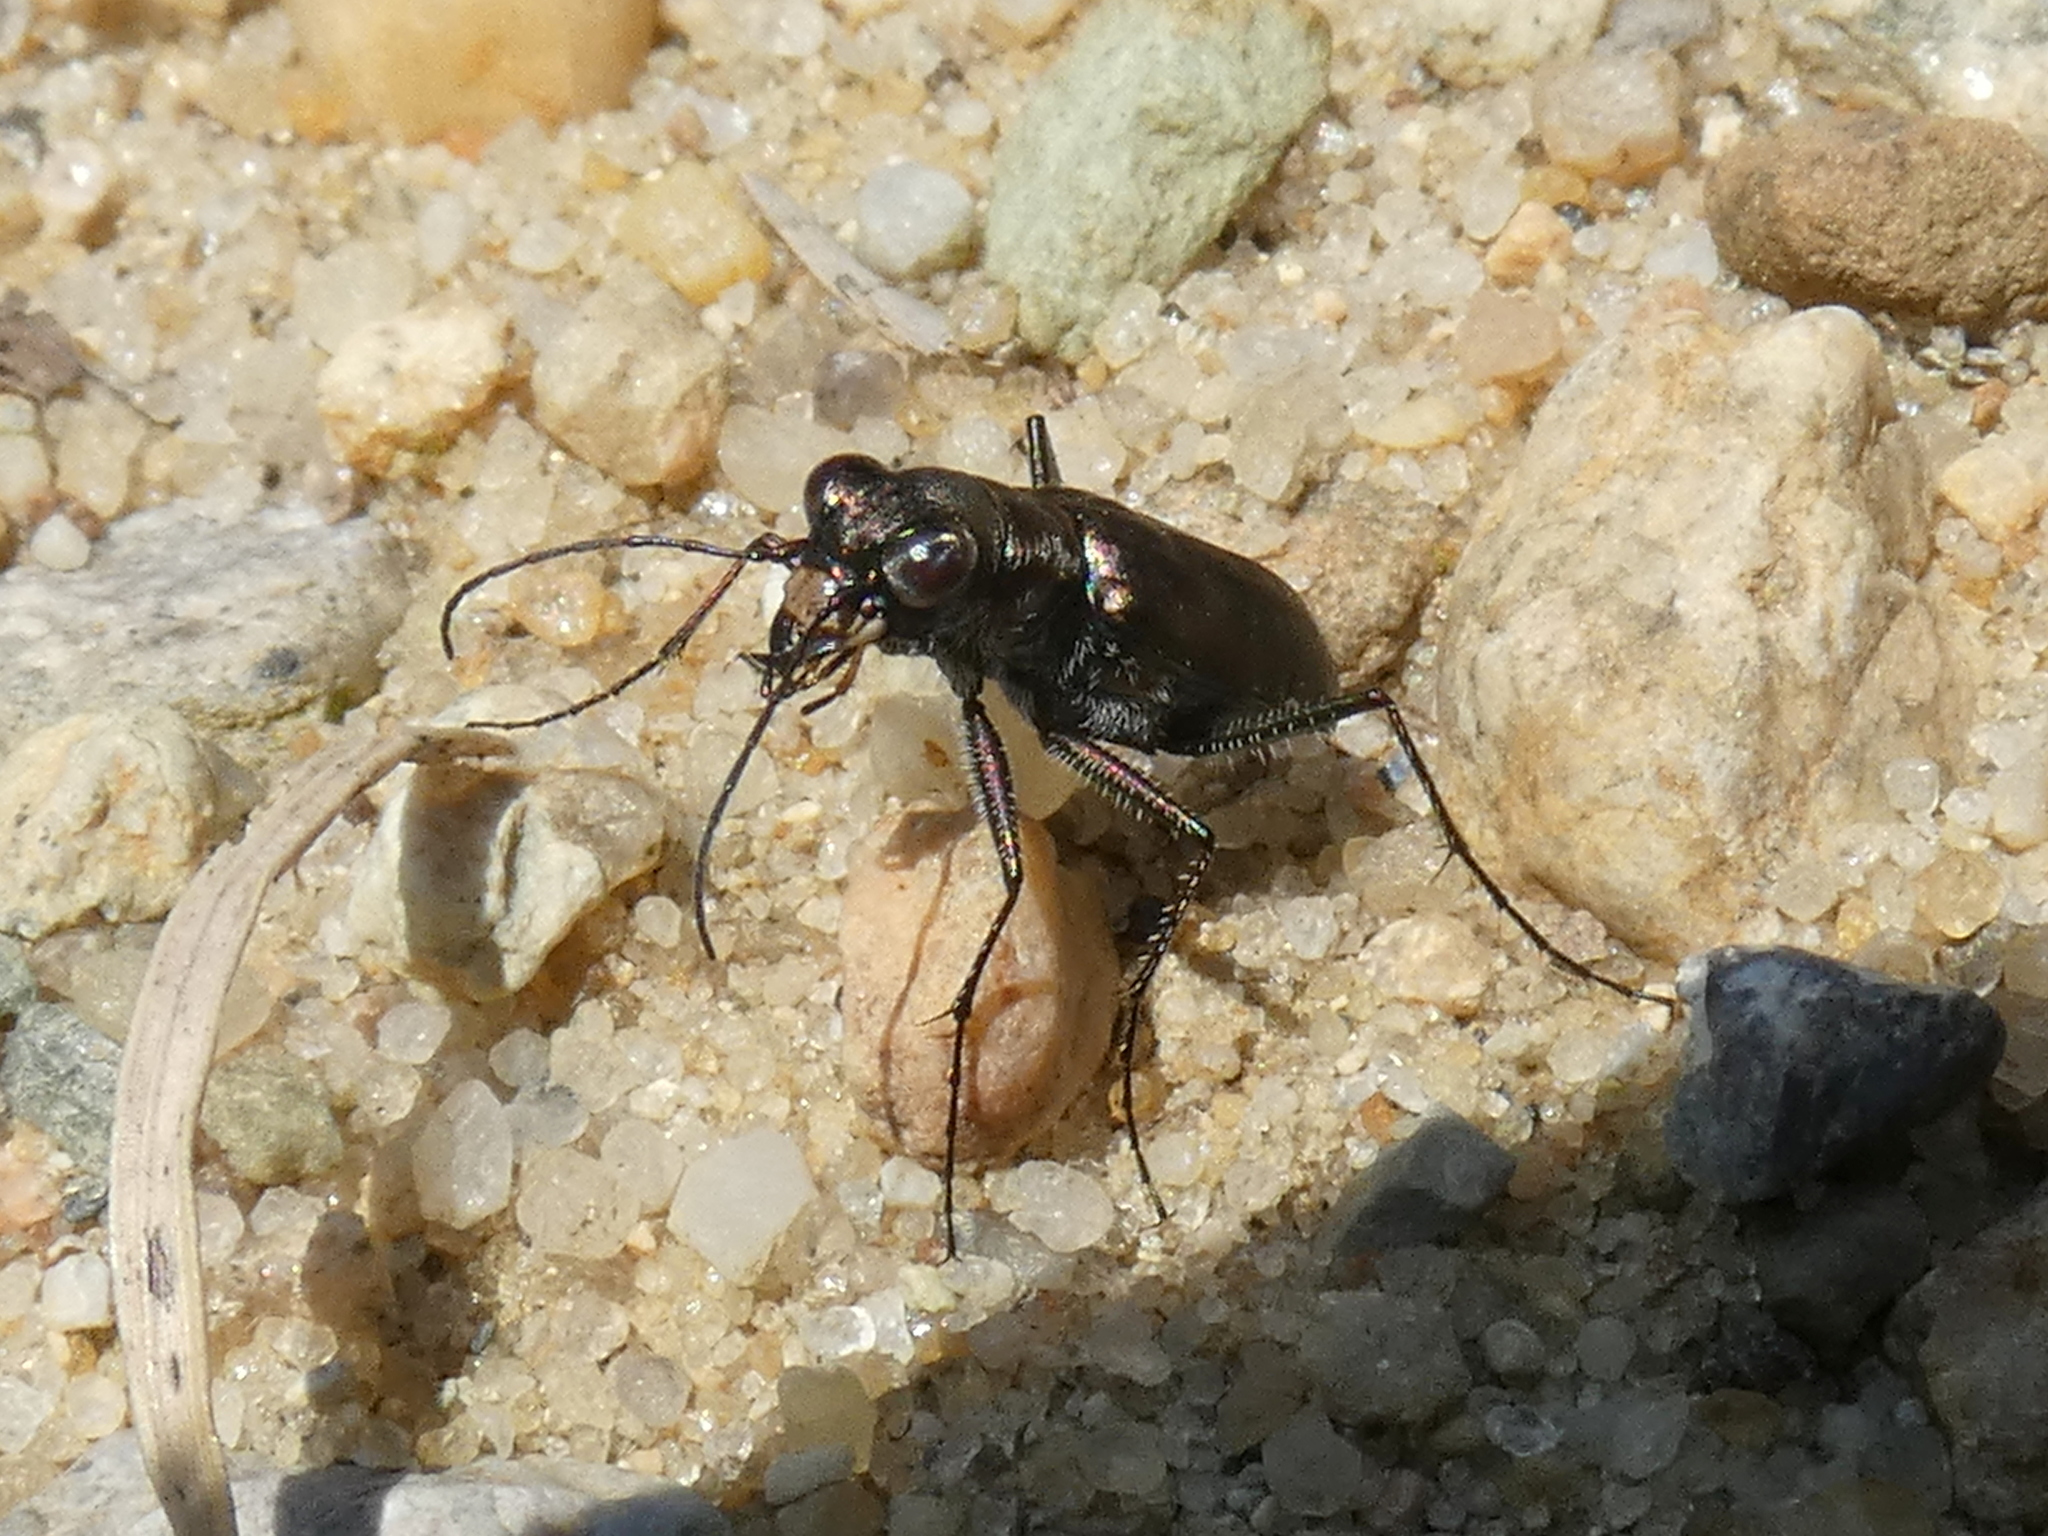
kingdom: Animalia
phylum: Arthropoda
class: Insecta
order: Coleoptera
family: Carabidae
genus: Cicindela
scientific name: Cicindela punctulata
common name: Punctured tiger beetle
